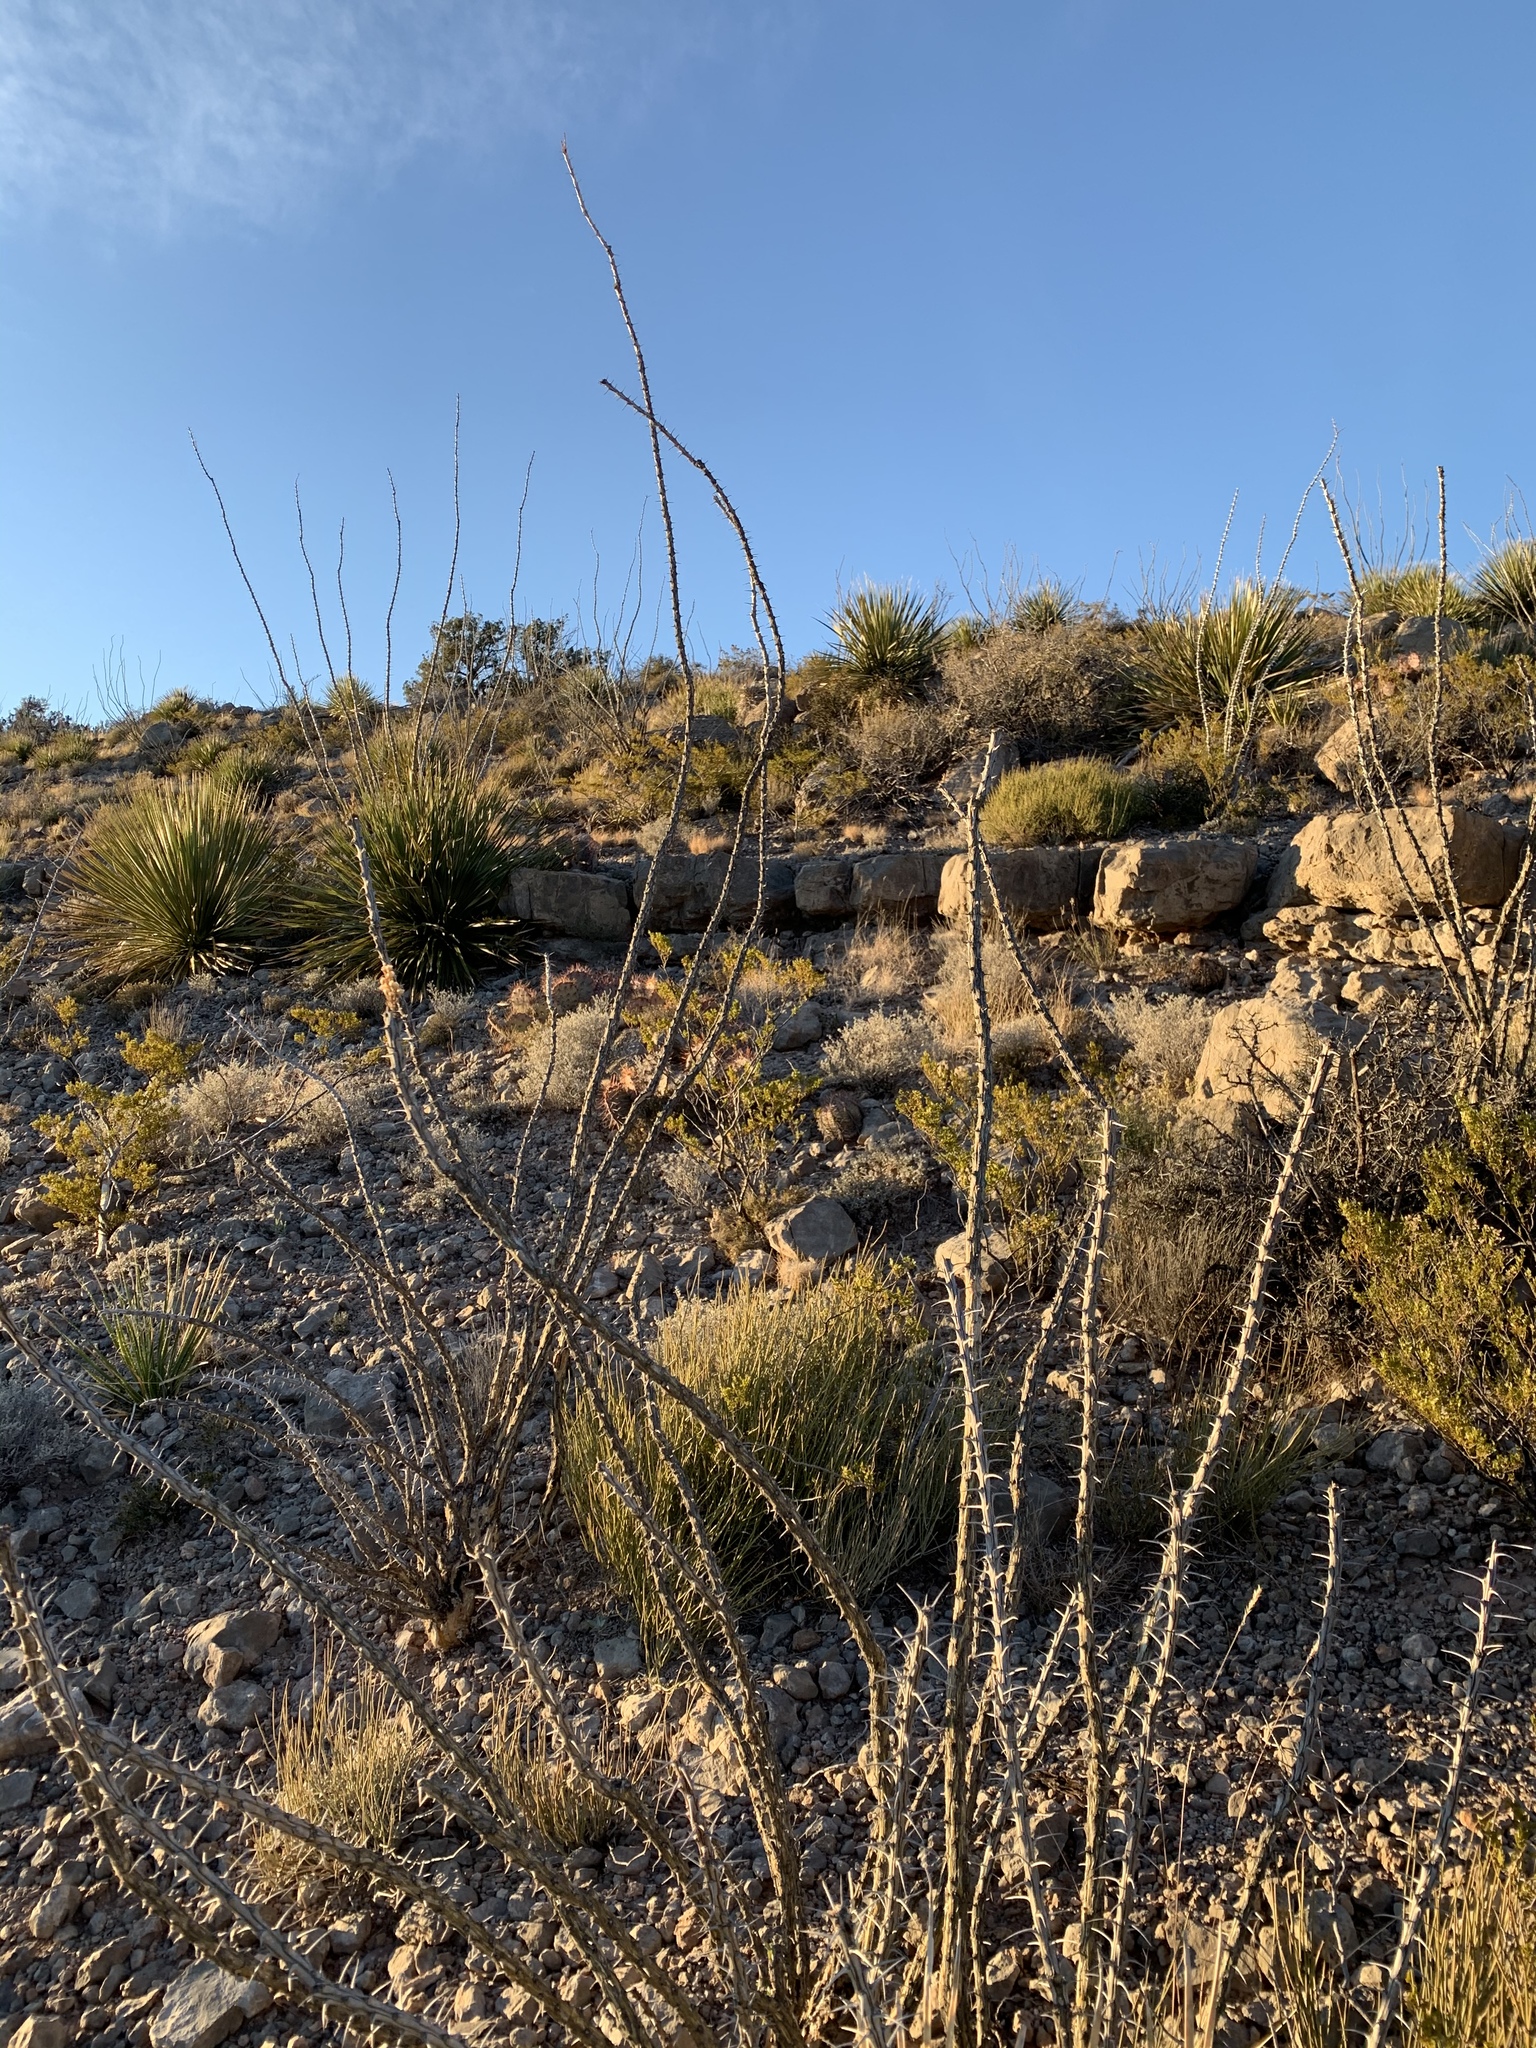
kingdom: Plantae
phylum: Tracheophyta
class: Magnoliopsida
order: Ericales
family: Fouquieriaceae
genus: Fouquieria
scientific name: Fouquieria splendens
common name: Vine-cactus
